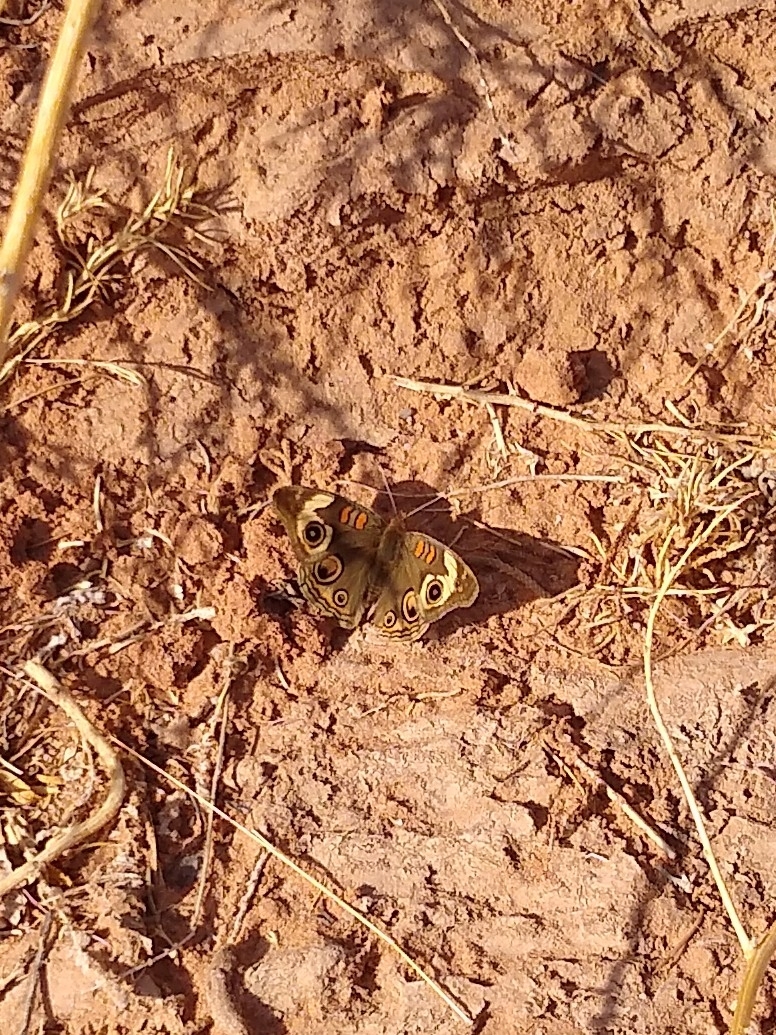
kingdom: Animalia
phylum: Arthropoda
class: Insecta
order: Lepidoptera
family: Nymphalidae
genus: Junonia
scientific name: Junonia grisea
